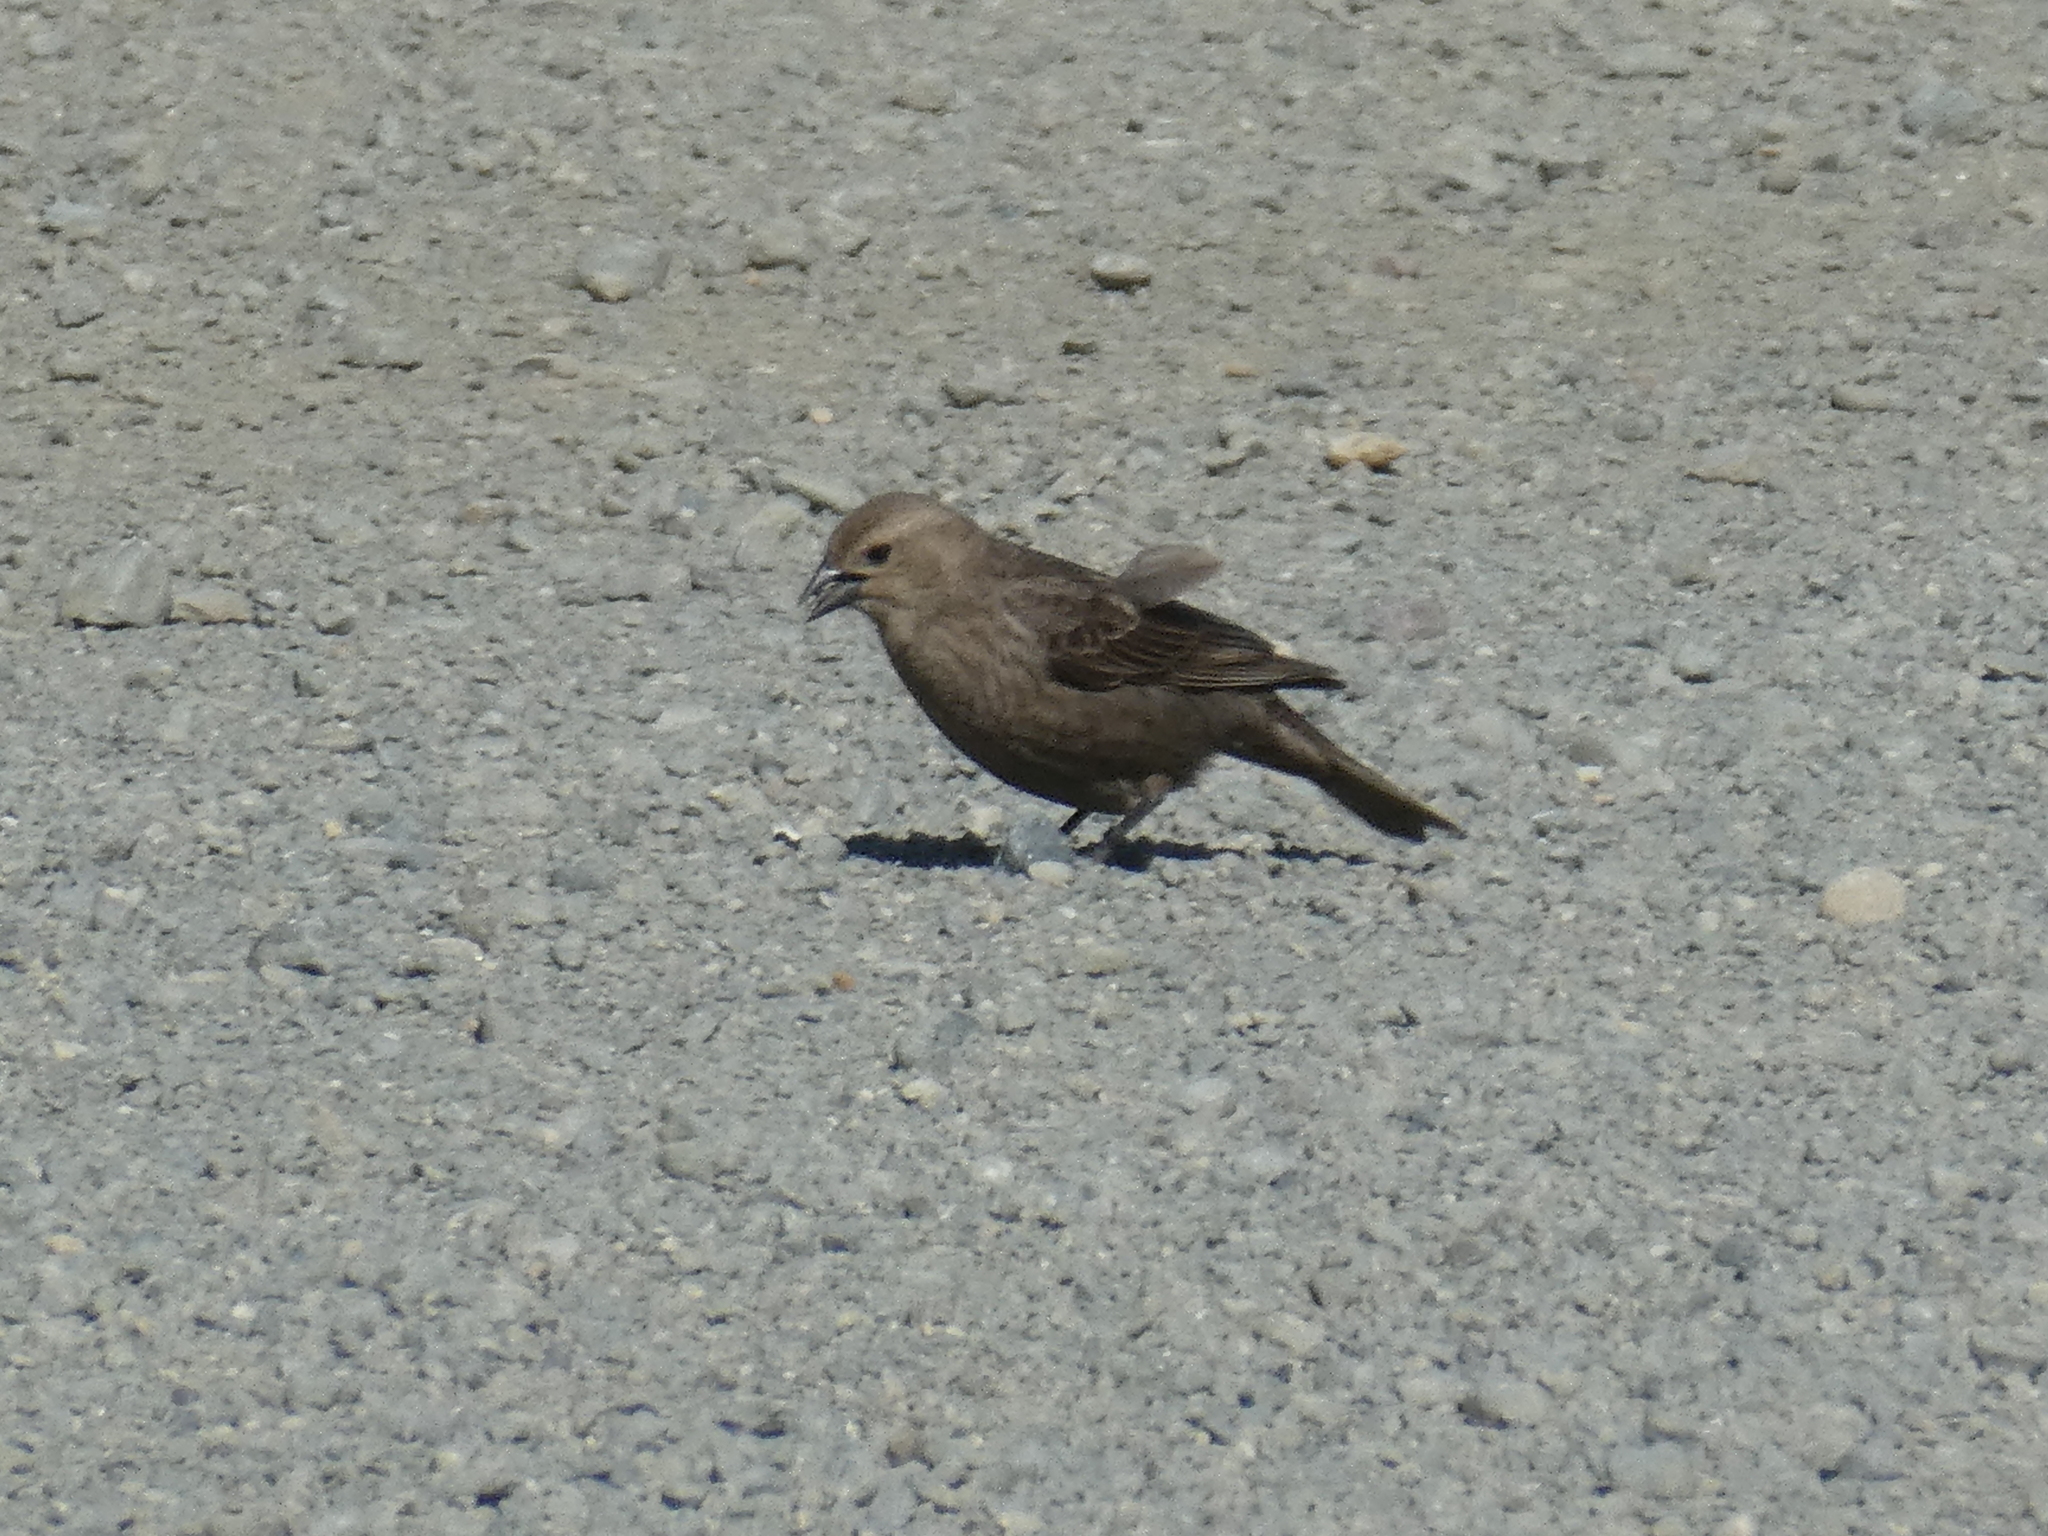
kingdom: Animalia
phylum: Chordata
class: Aves
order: Passeriformes
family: Icteridae
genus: Molothrus
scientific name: Molothrus ater
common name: Brown-headed cowbird
